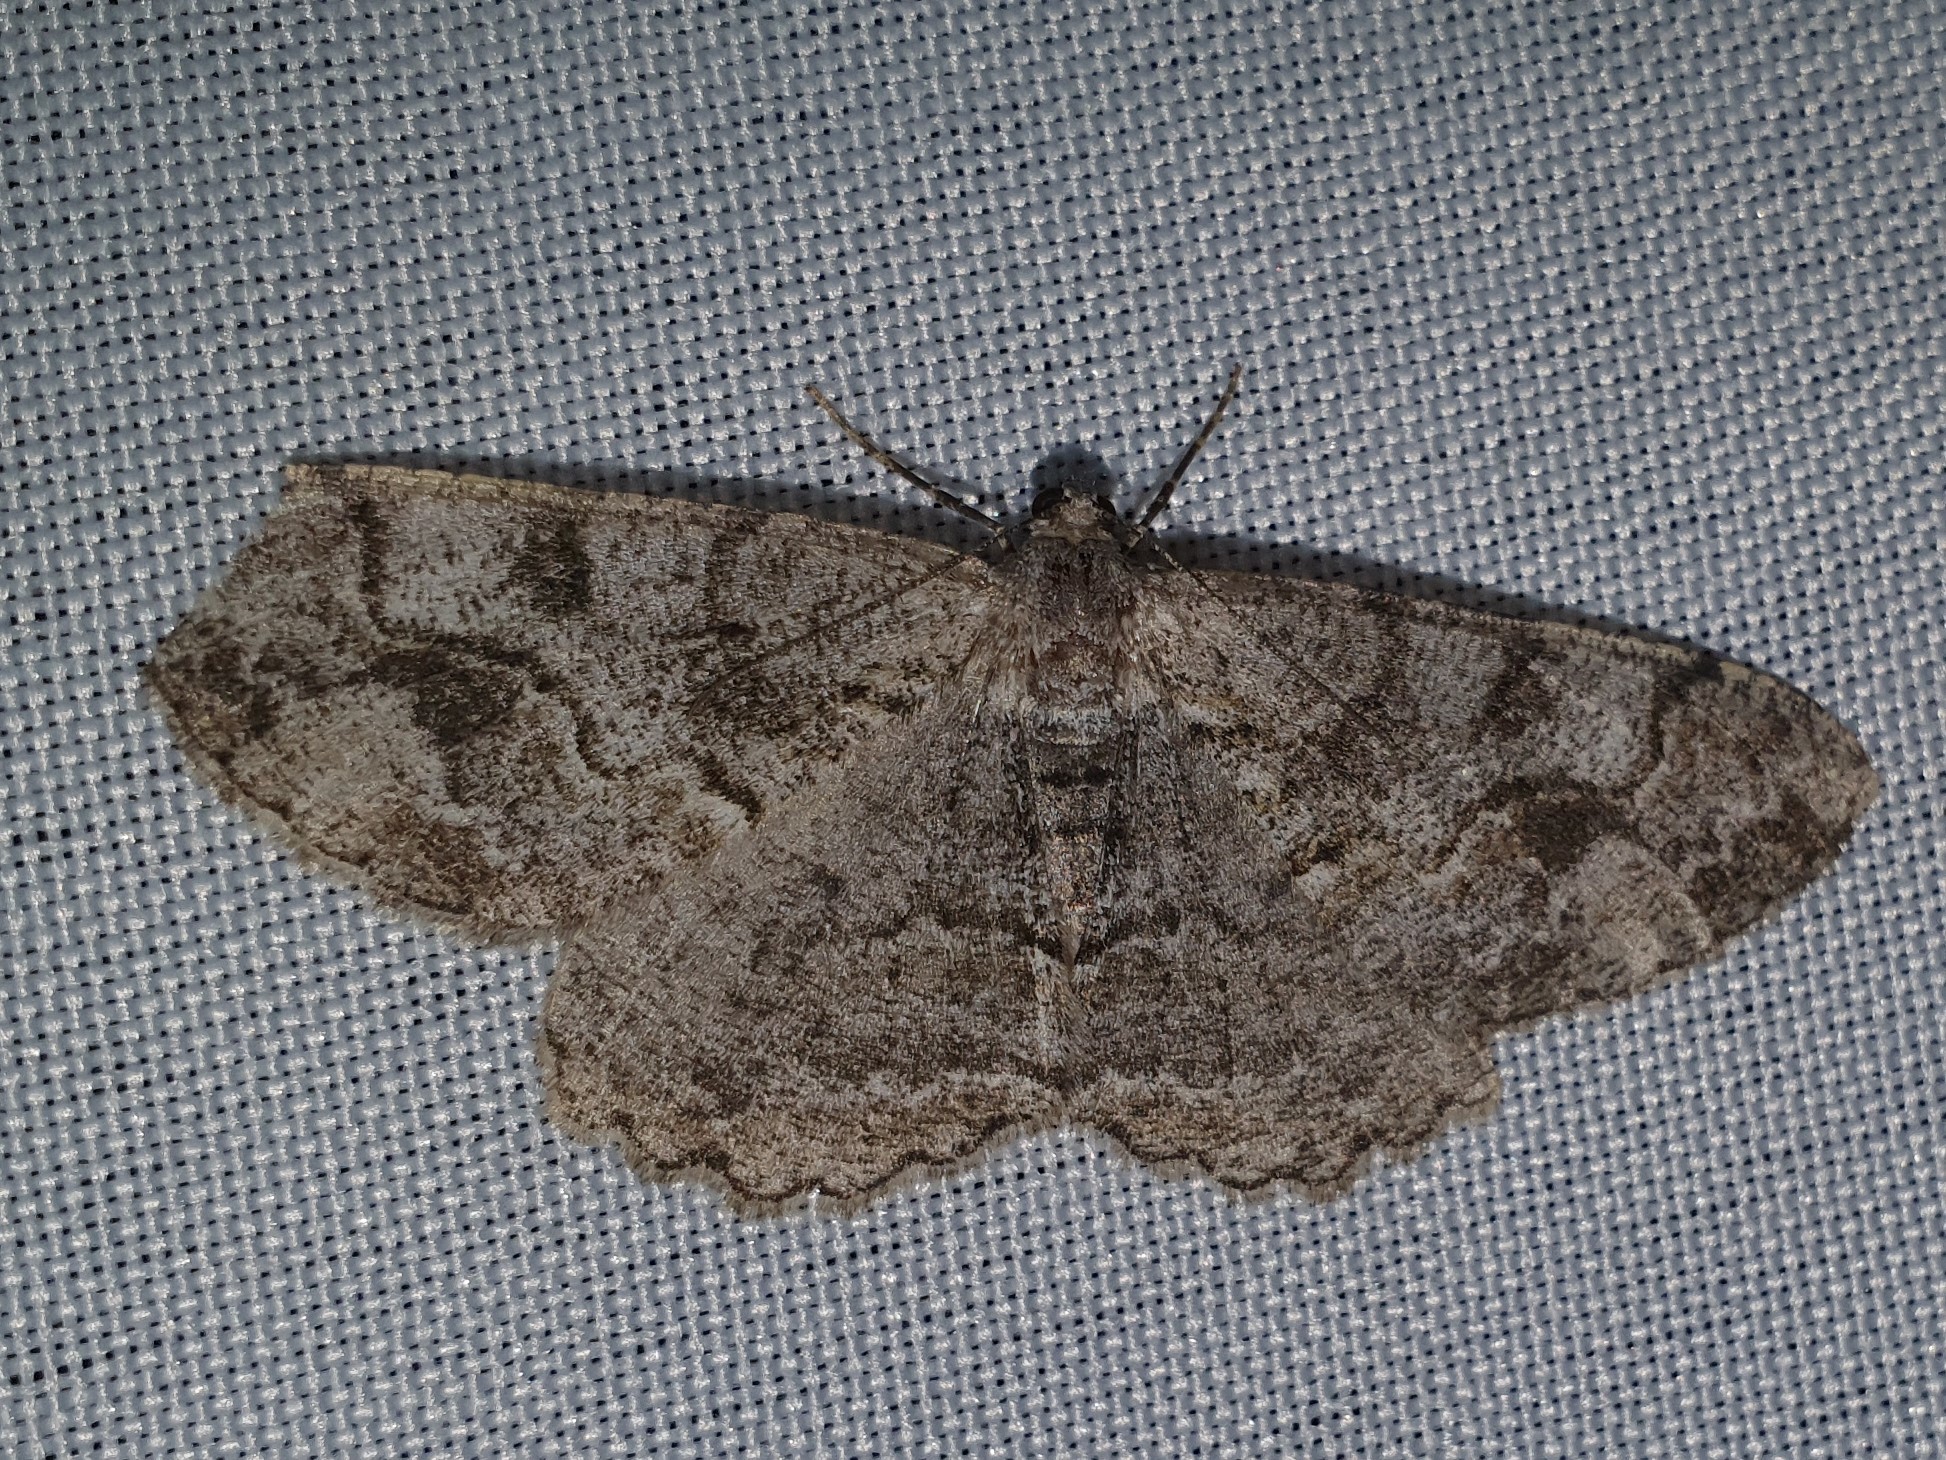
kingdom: Animalia
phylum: Arthropoda
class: Insecta
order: Lepidoptera
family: Geometridae
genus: Alcis
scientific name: Alcis repandata
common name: Mottled beauty
